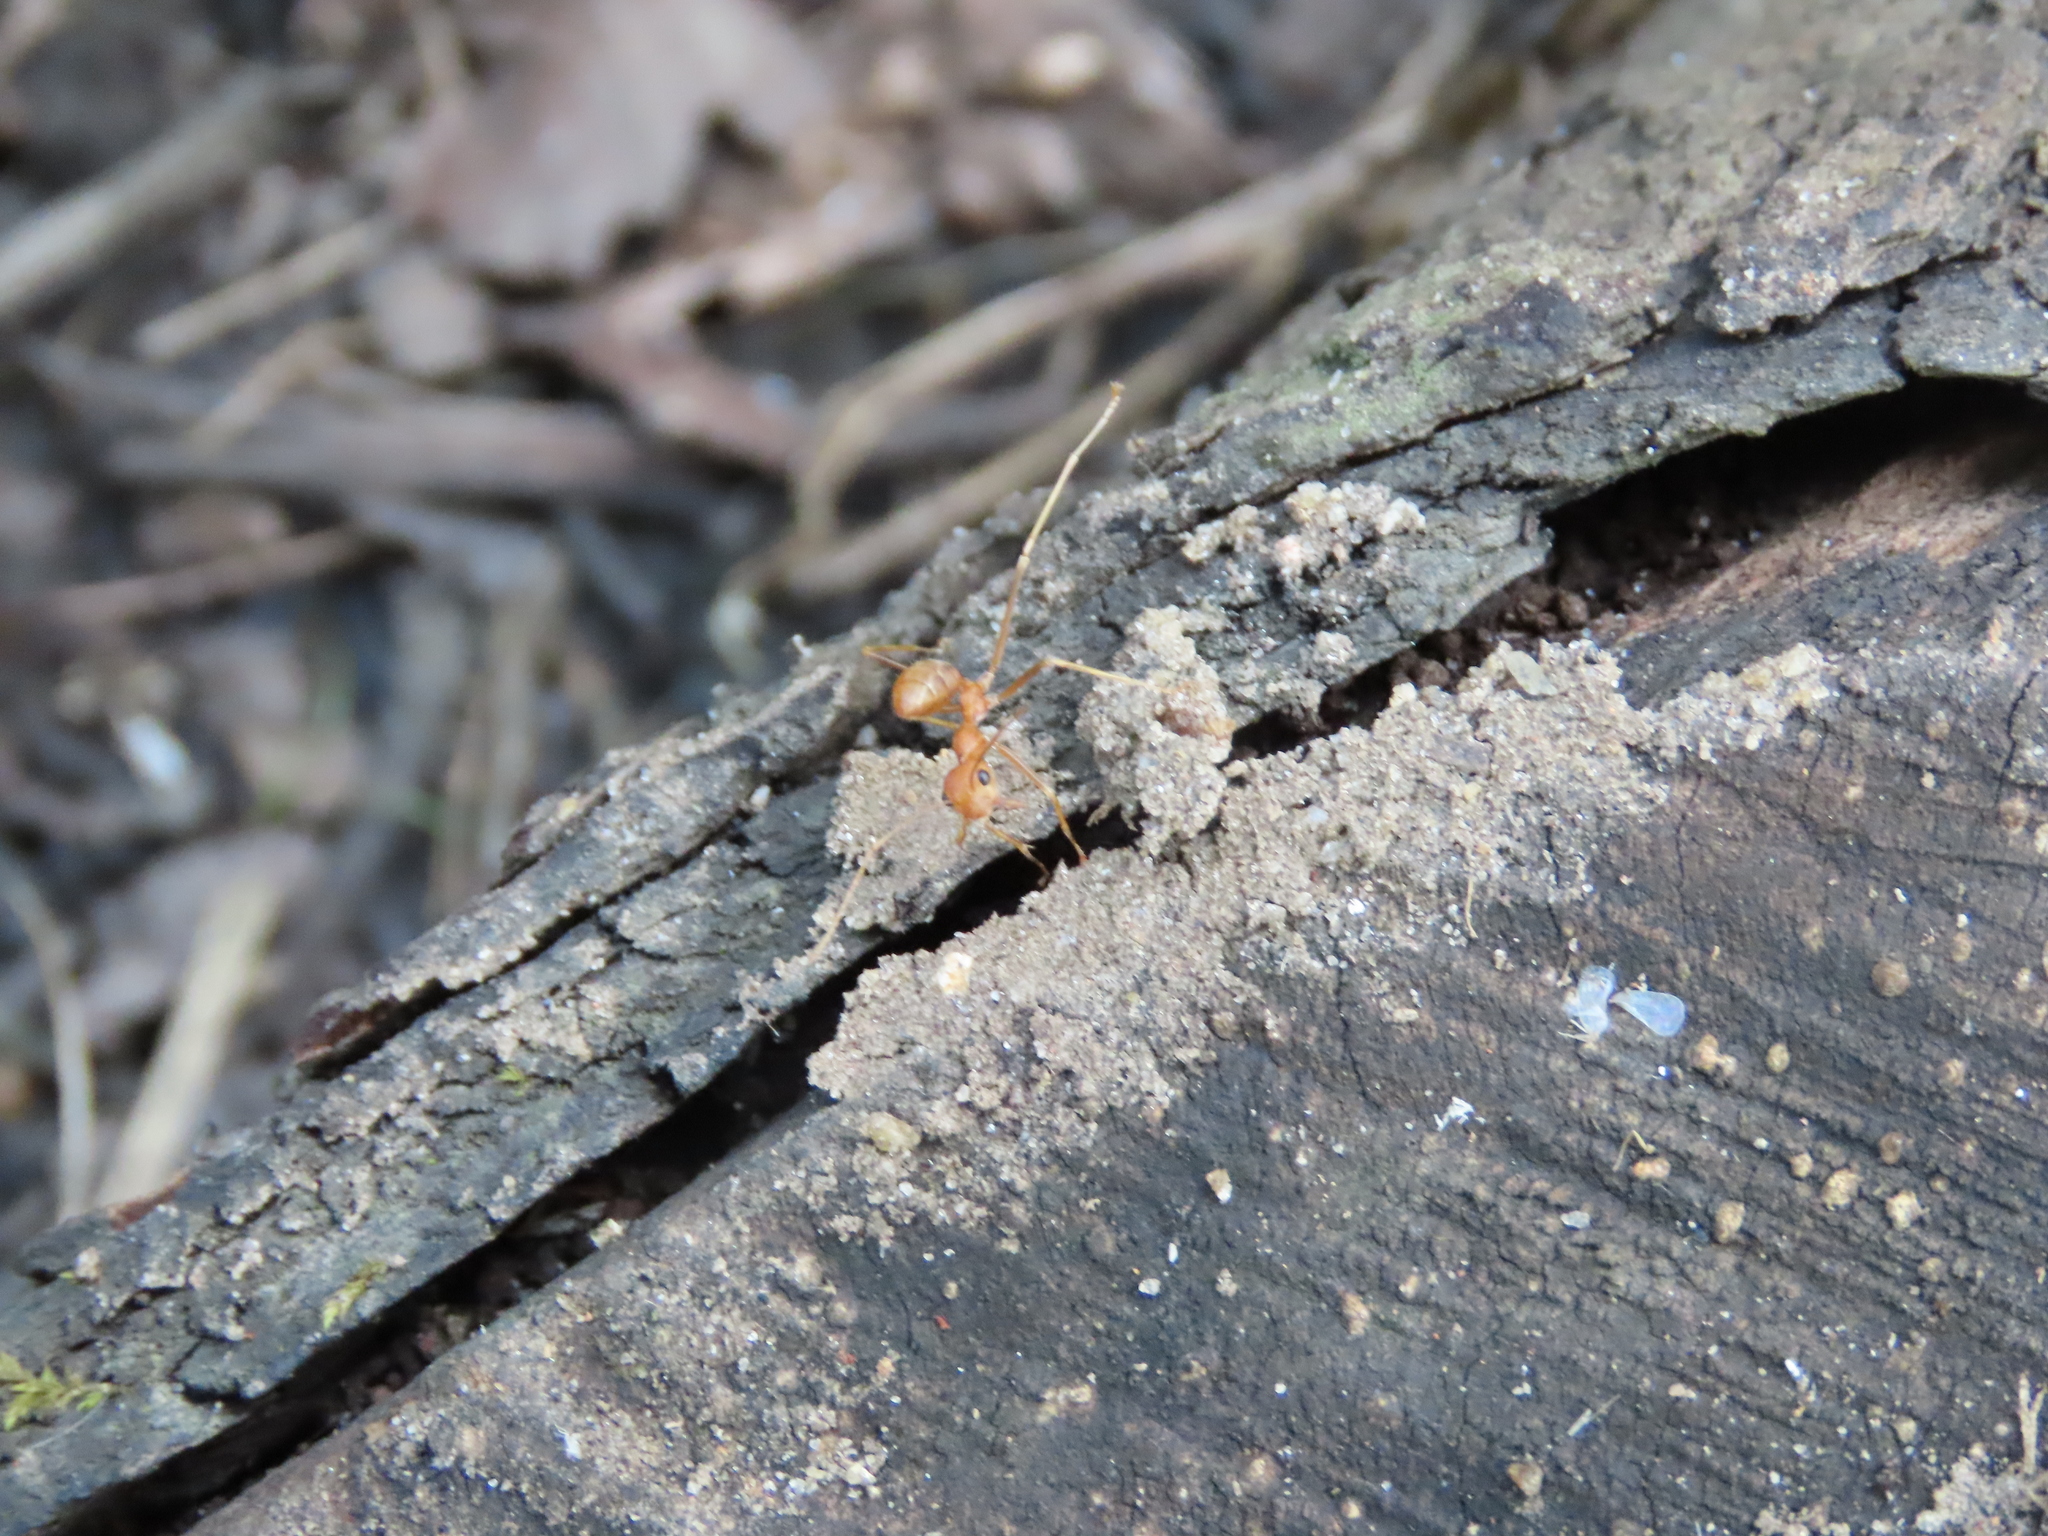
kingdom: Animalia
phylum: Arthropoda
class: Insecta
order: Hymenoptera
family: Formicidae
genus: Oecophylla
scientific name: Oecophylla smaragdina
